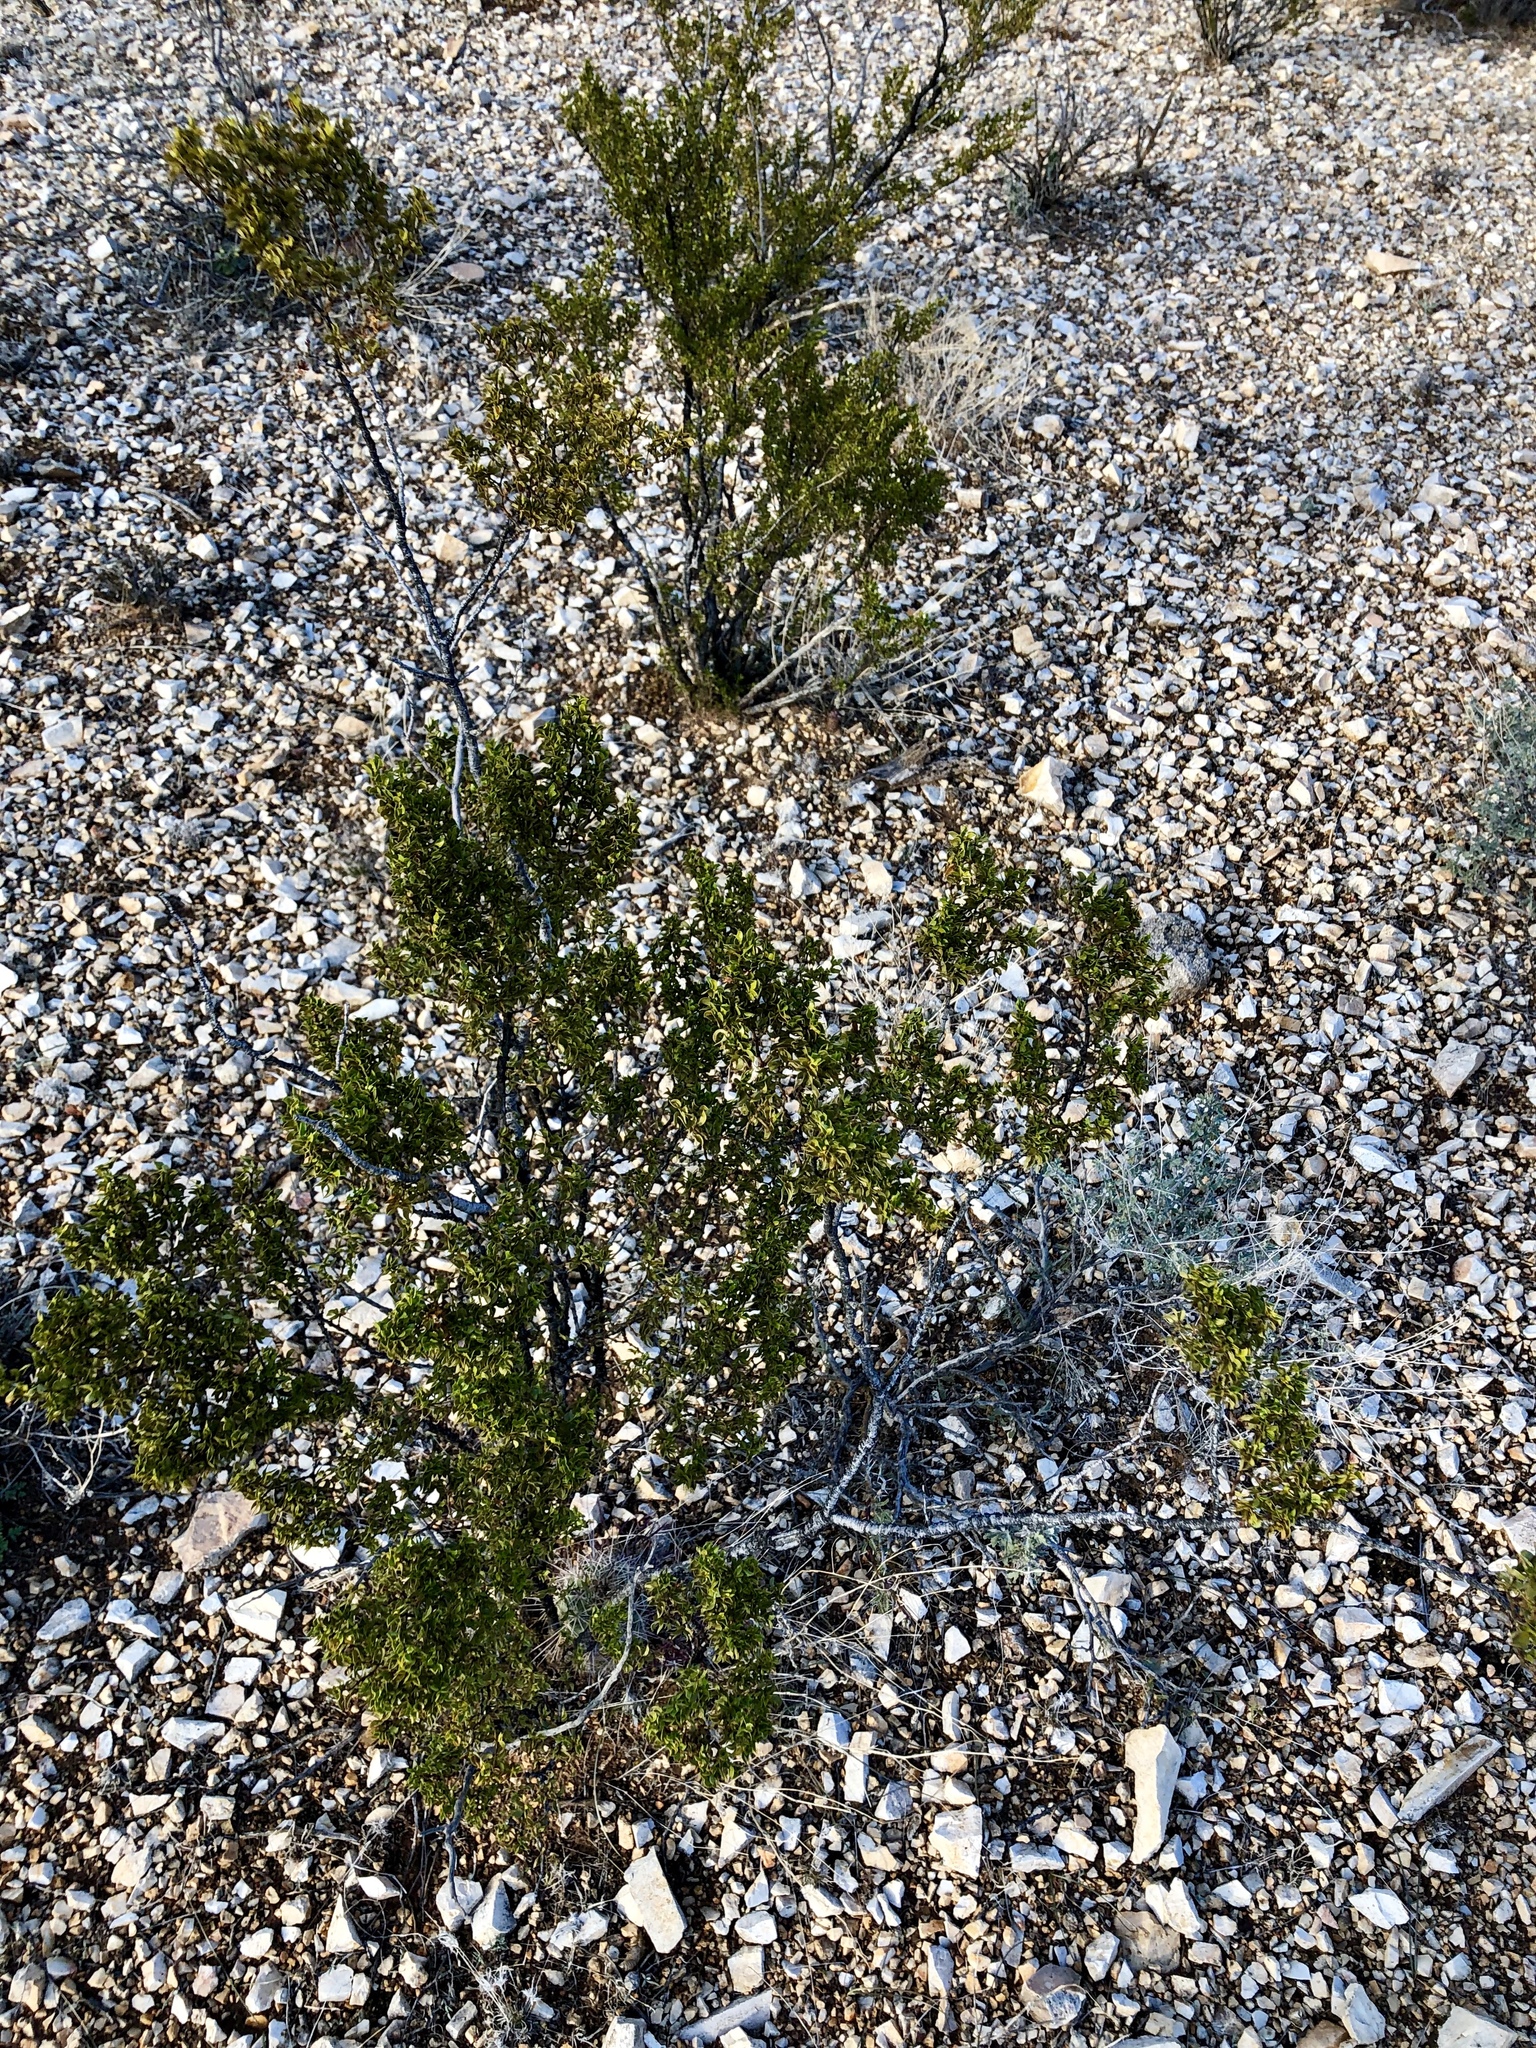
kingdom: Plantae
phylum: Tracheophyta
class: Magnoliopsida
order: Zygophyllales
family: Zygophyllaceae
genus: Larrea
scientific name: Larrea tridentata
